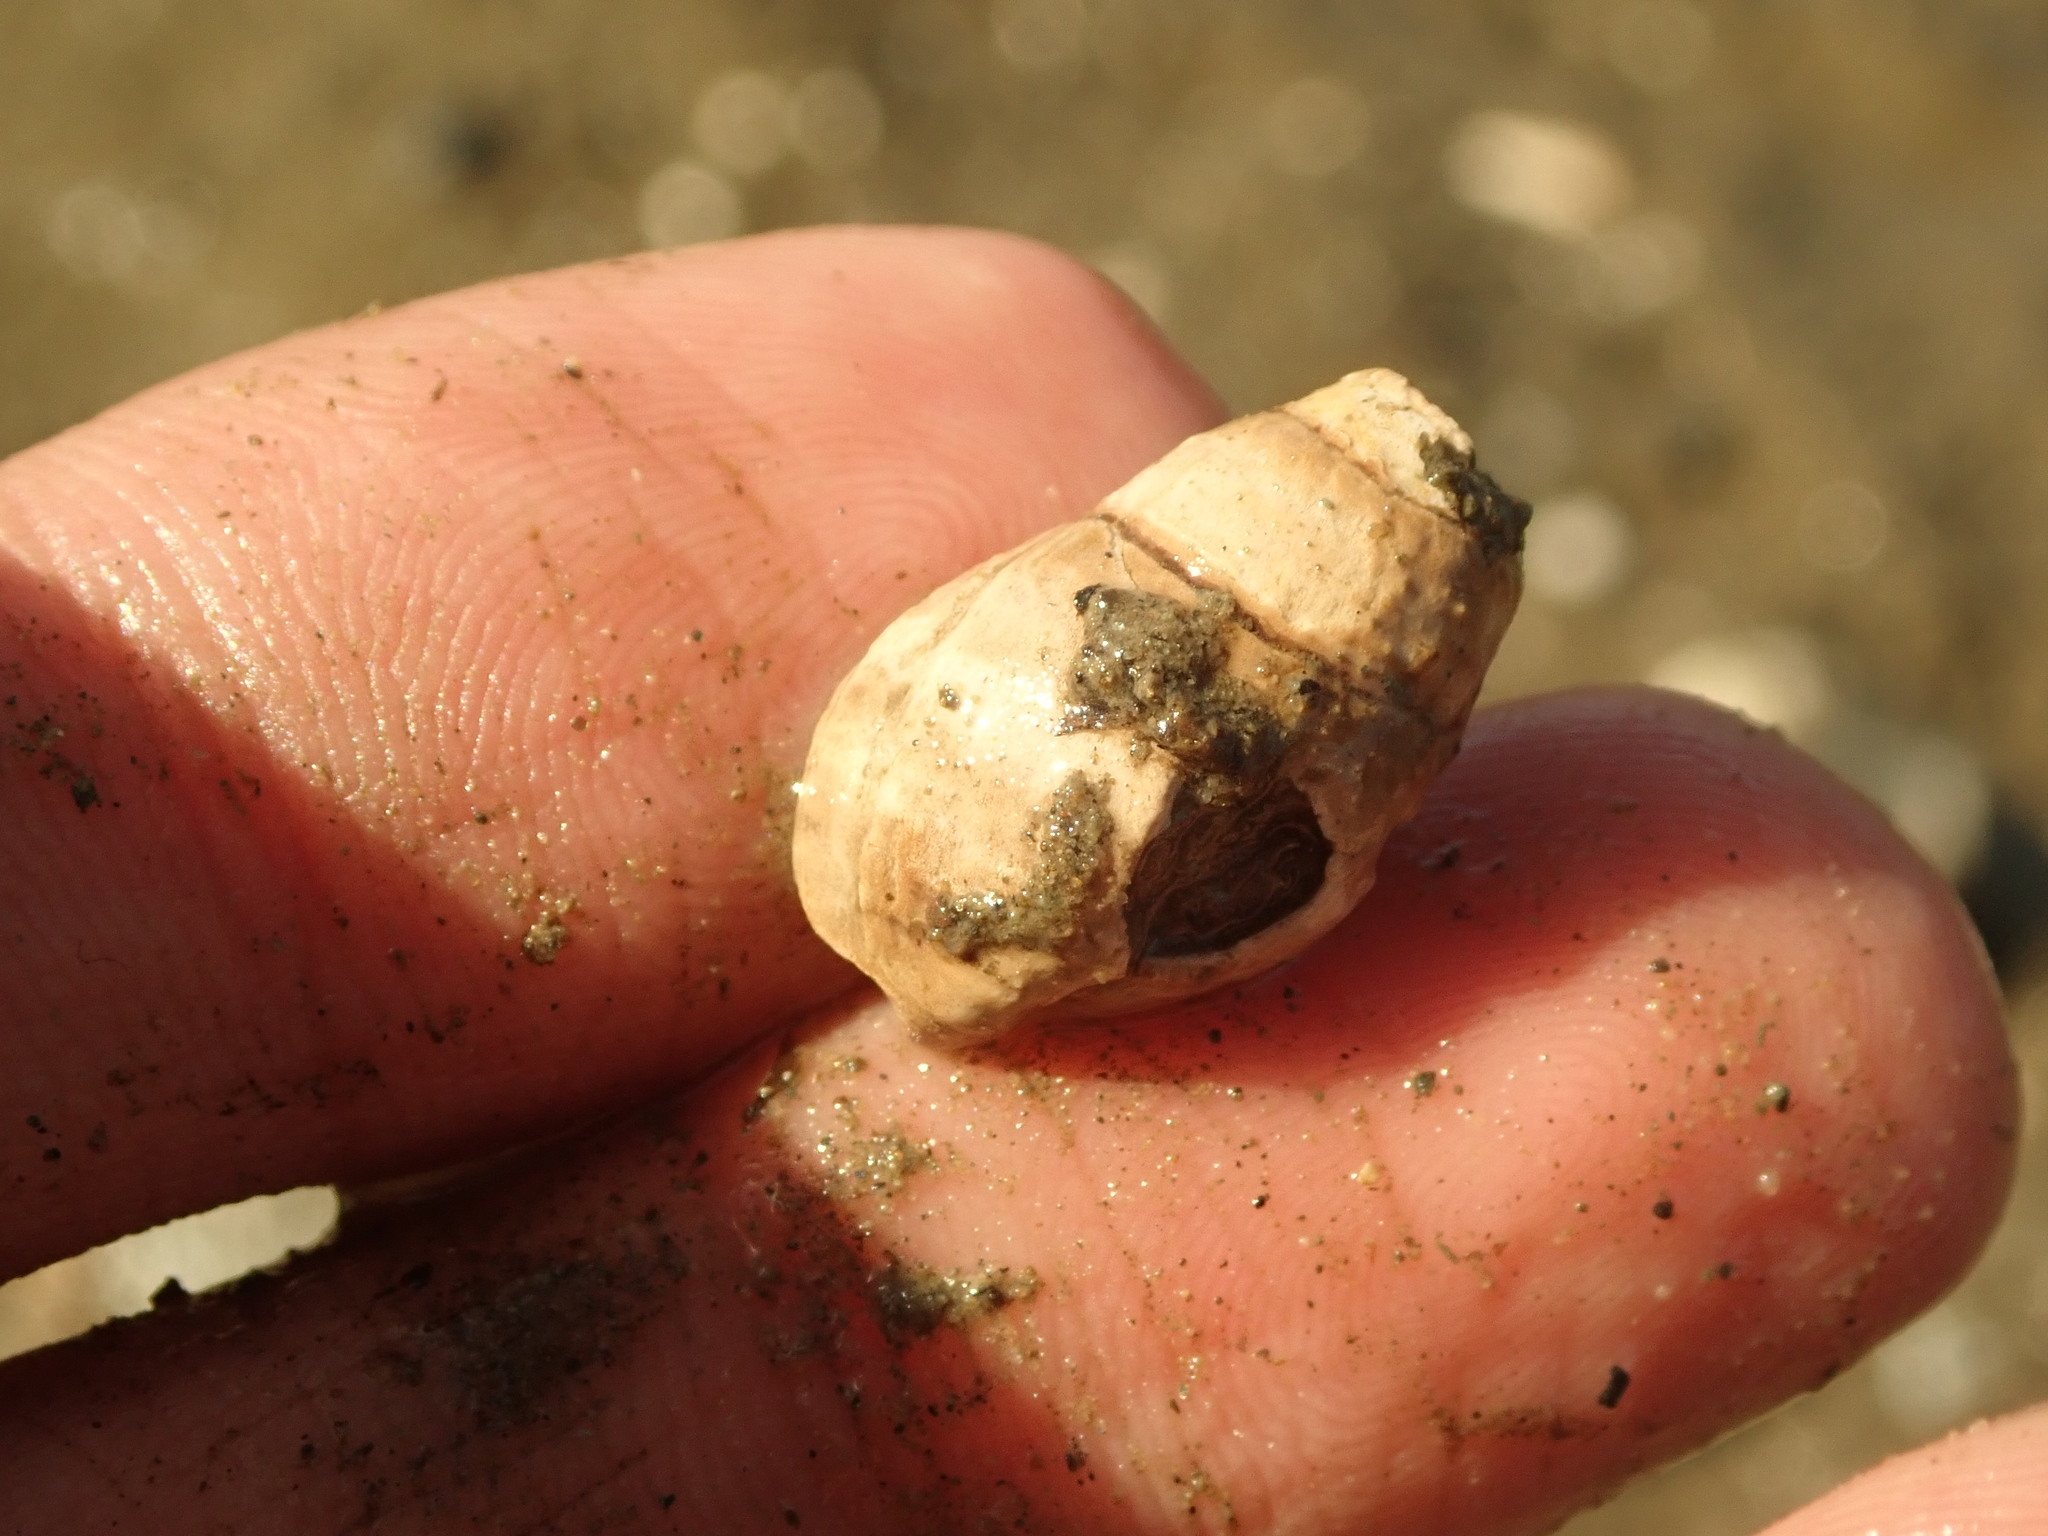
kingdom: Animalia
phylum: Mollusca
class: Gastropoda
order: Neogastropoda
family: Nassariidae
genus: Ilyanassa
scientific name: Ilyanassa obsoleta
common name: Eastern mudsnail
